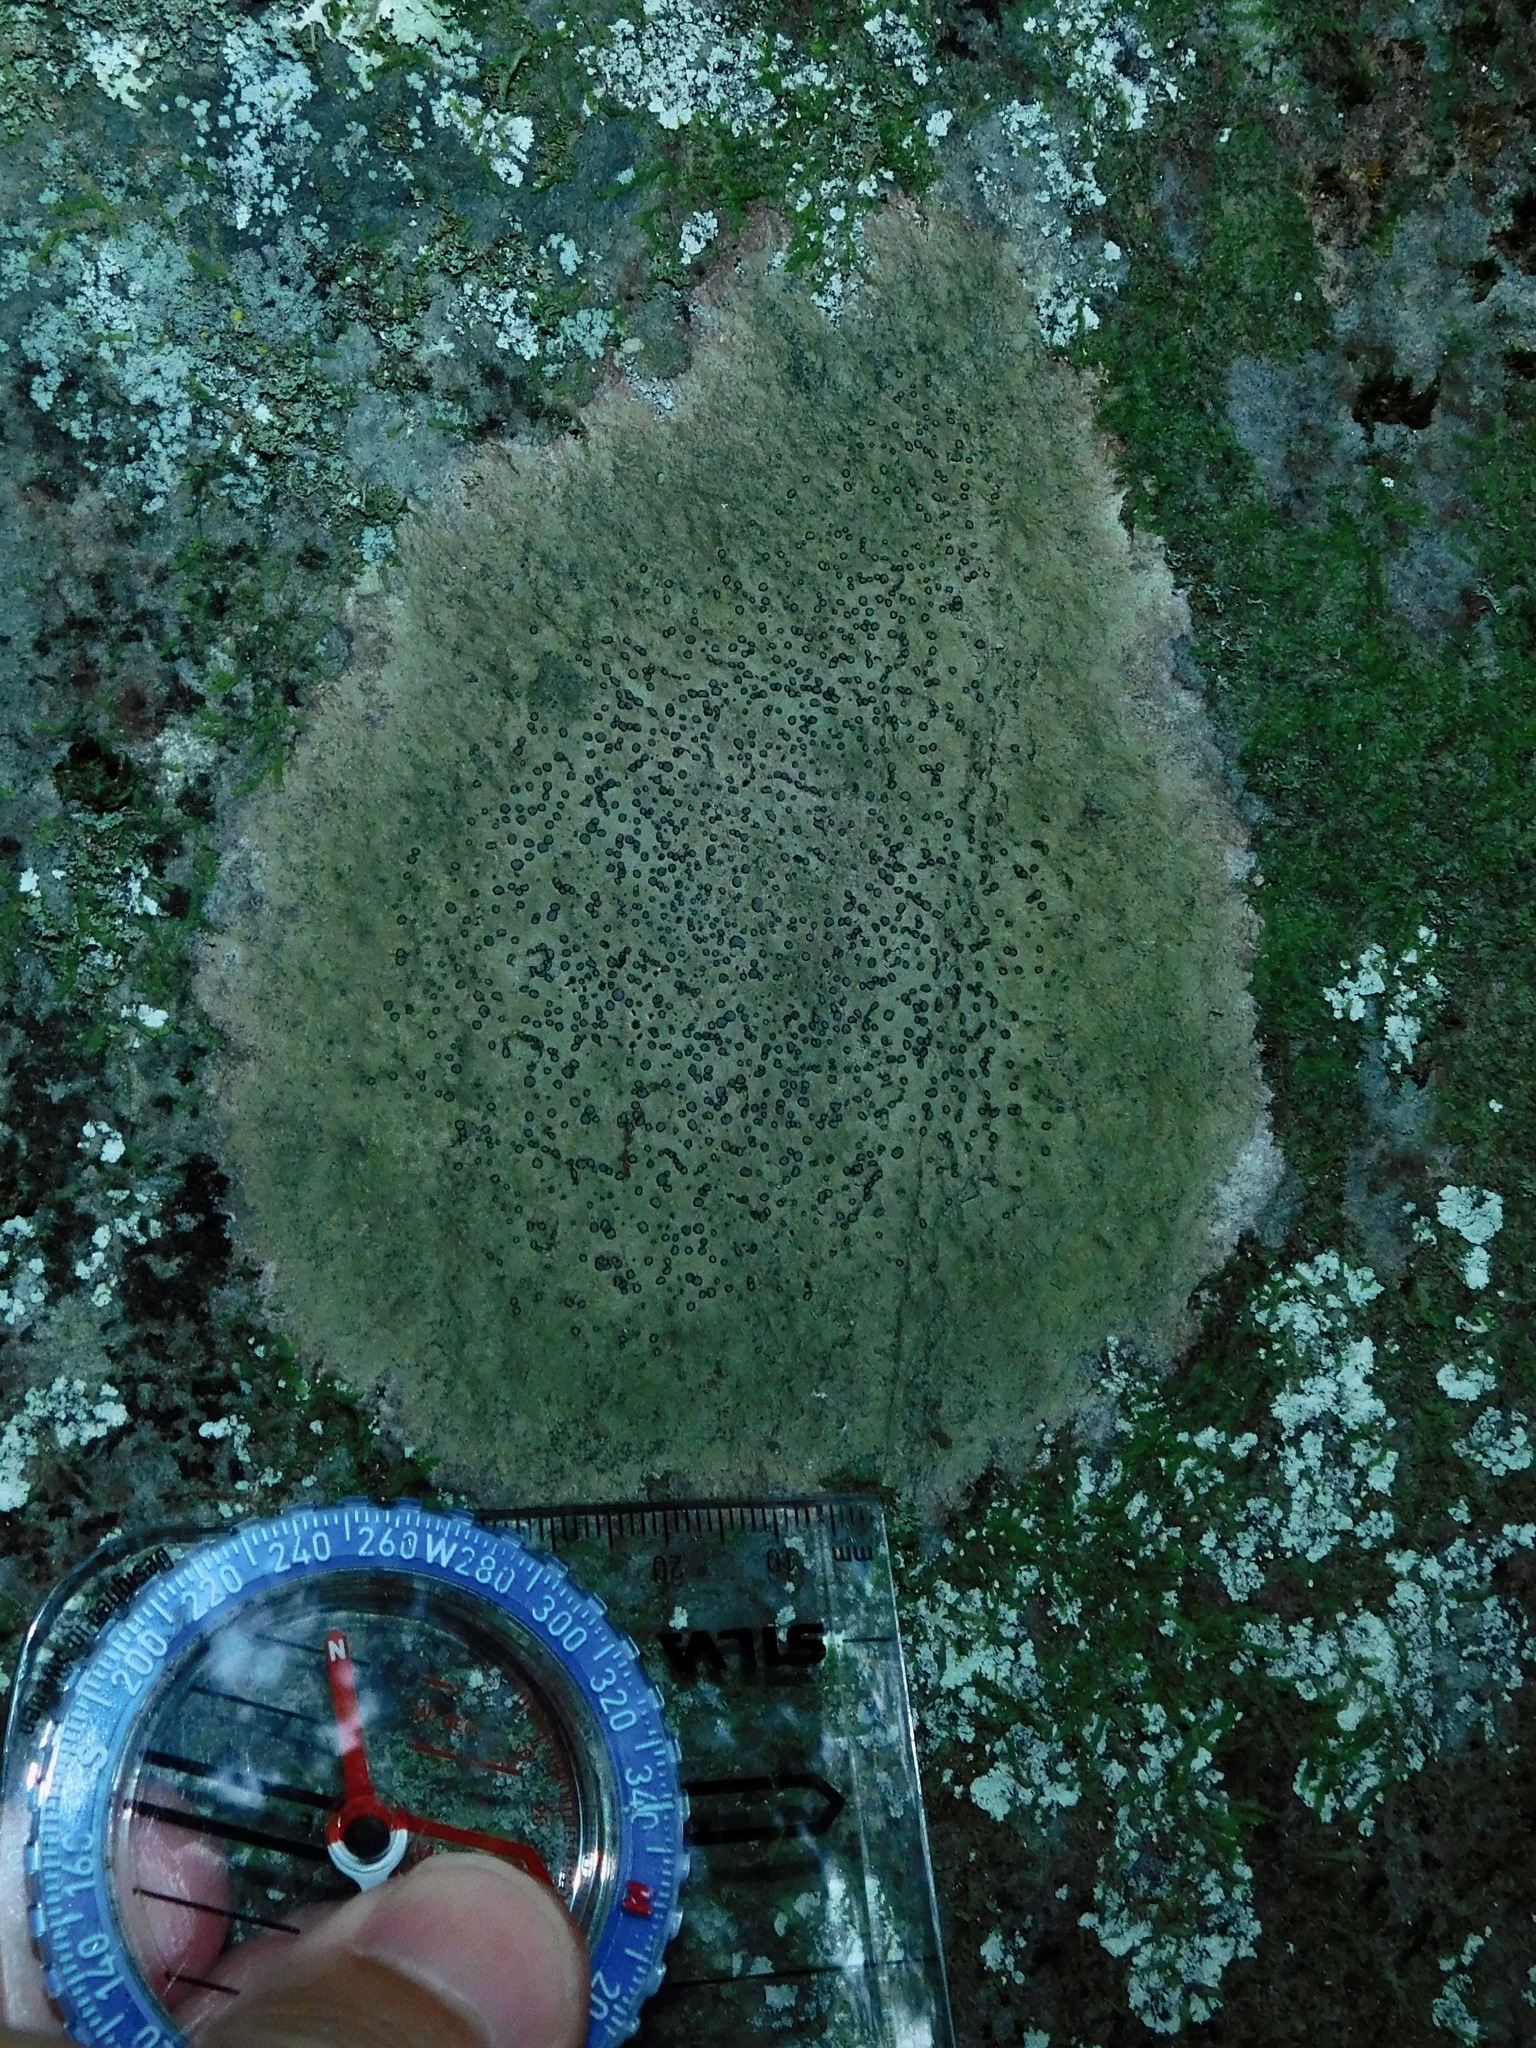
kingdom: Fungi
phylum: Ascomycota
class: Lecanoromycetes
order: Lecideales
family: Lecideaceae
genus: Porpidia
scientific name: Porpidia albocaerulescens
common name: Smokey-eyed boulder lichen
